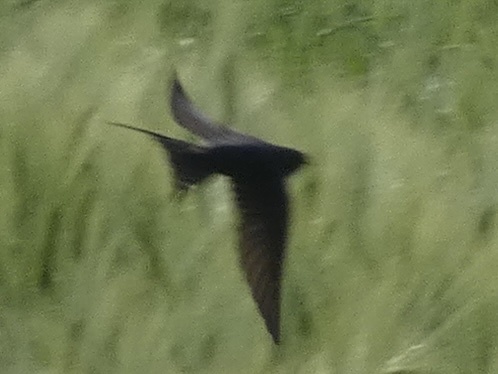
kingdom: Animalia
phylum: Chordata
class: Aves
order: Passeriformes
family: Hirundinidae
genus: Hirundo
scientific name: Hirundo rustica
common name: Barn swallow
